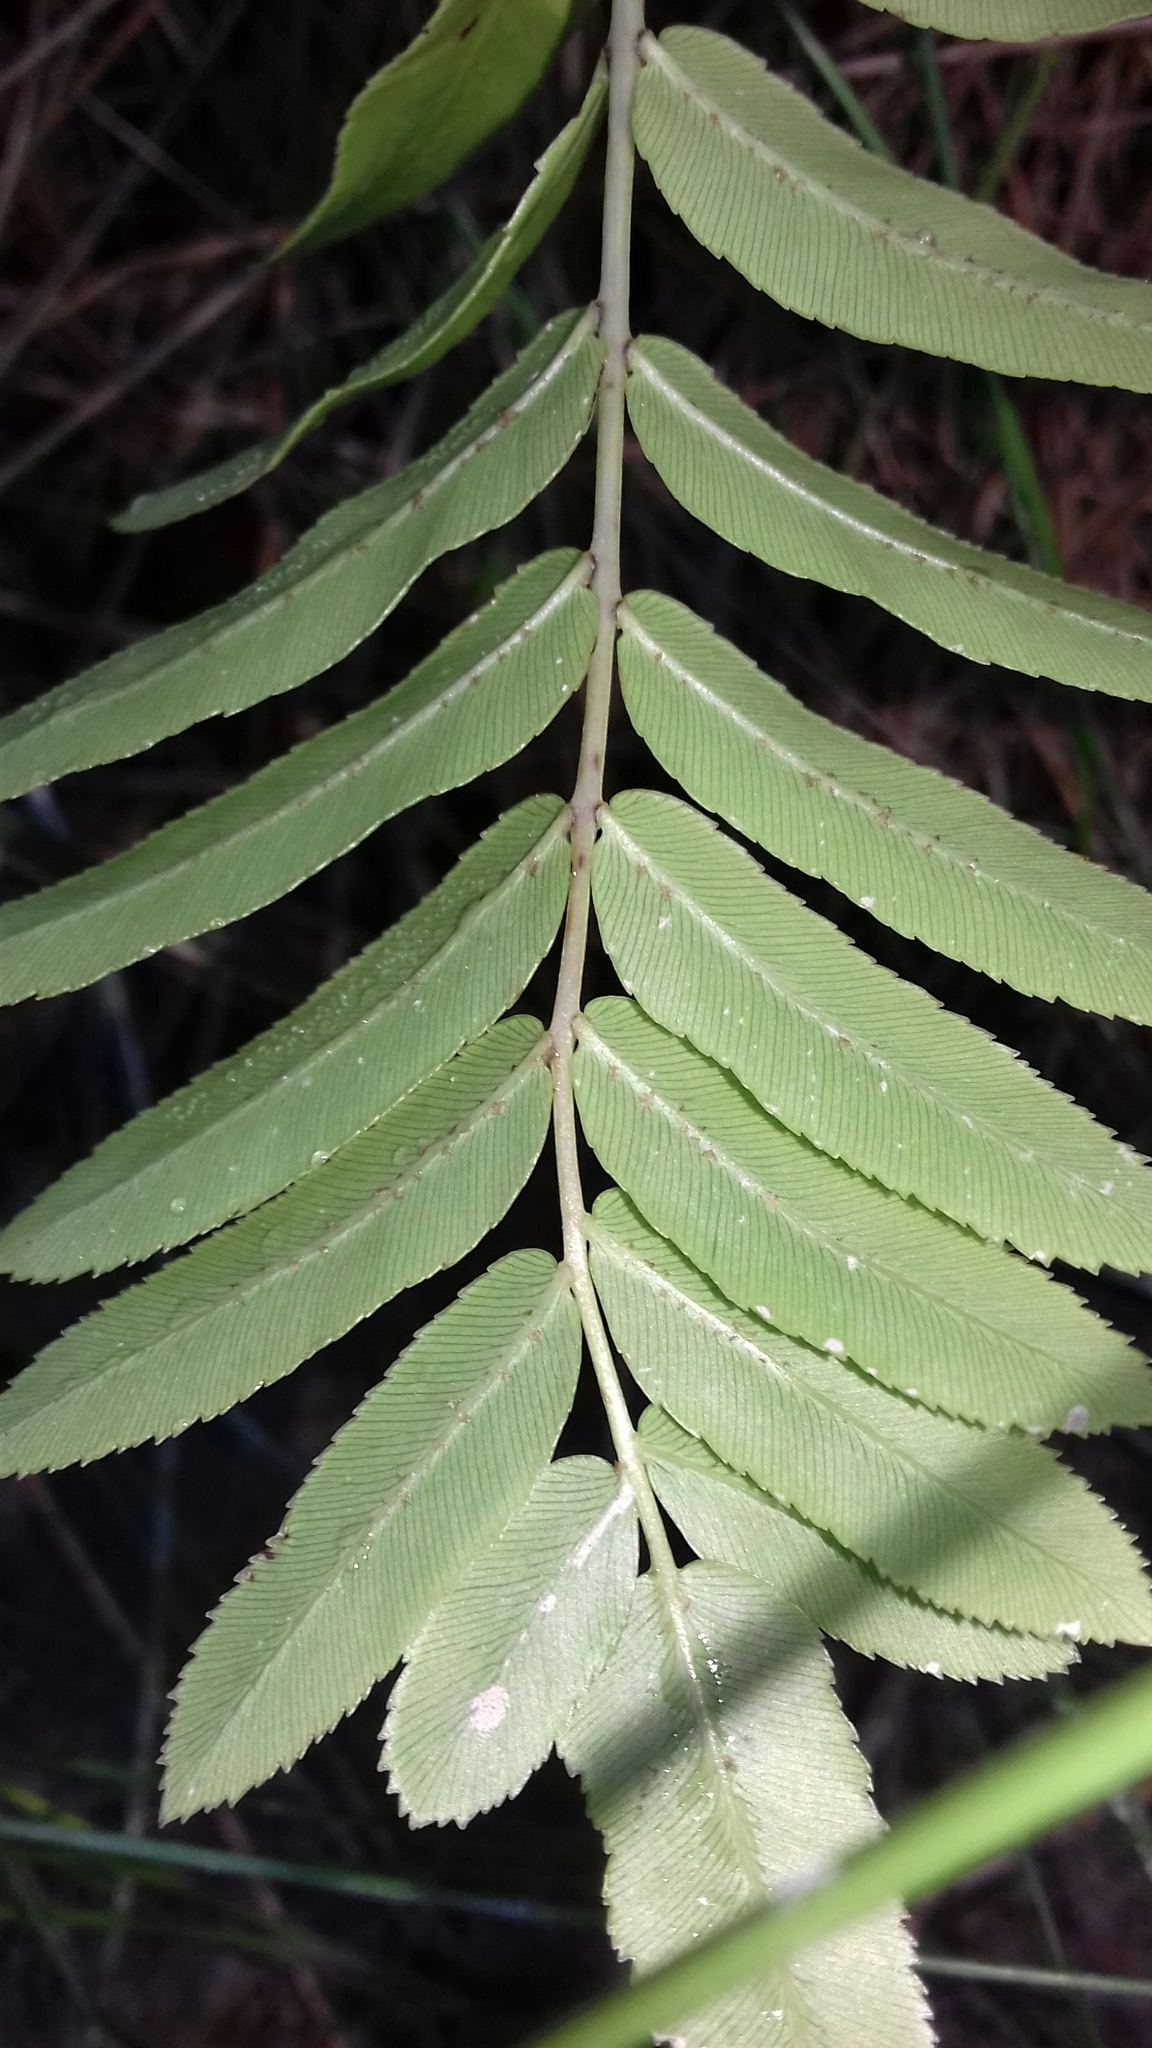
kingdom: Plantae
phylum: Tracheophyta
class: Polypodiopsida
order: Polypodiales
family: Blechnaceae
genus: Telmatoblechnum
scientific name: Telmatoblechnum serrulatum
